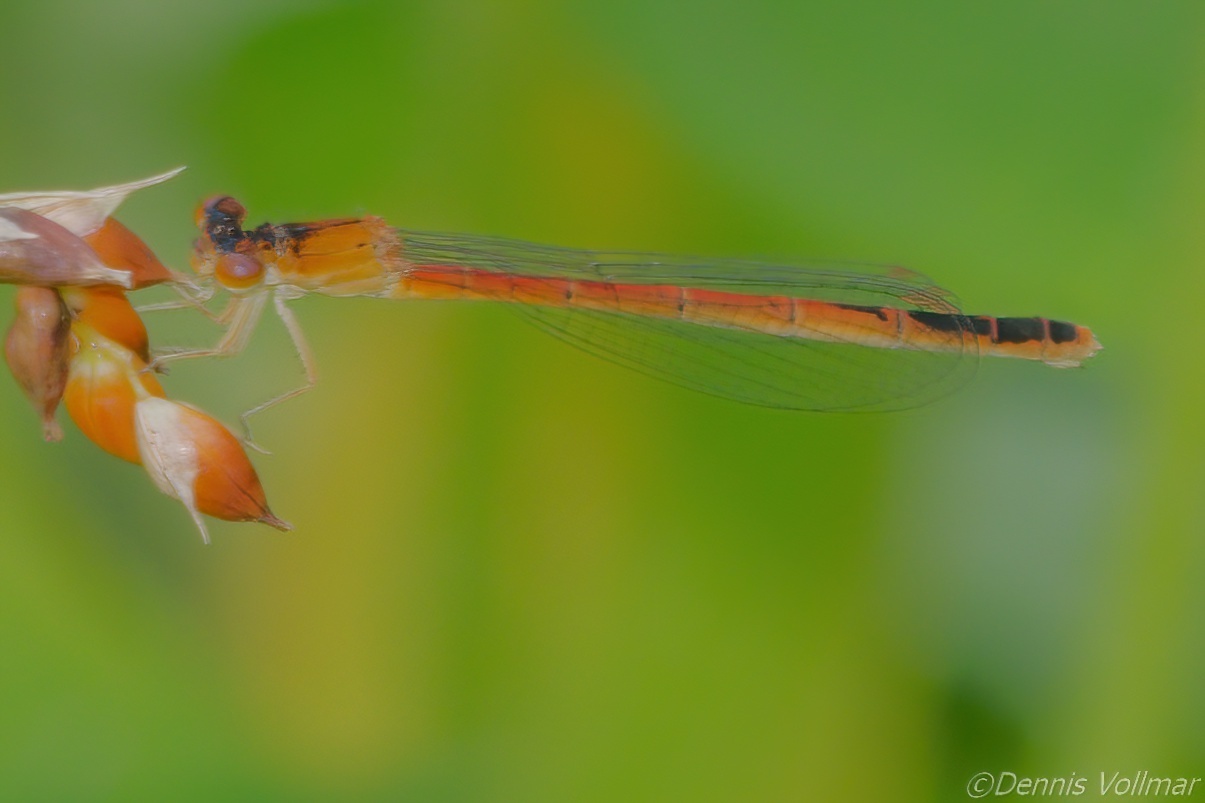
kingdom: Animalia
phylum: Arthropoda
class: Insecta
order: Odonata
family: Coenagrionidae
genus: Amphiagrion
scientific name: Amphiagrion saucium
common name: Eastern red damsel
